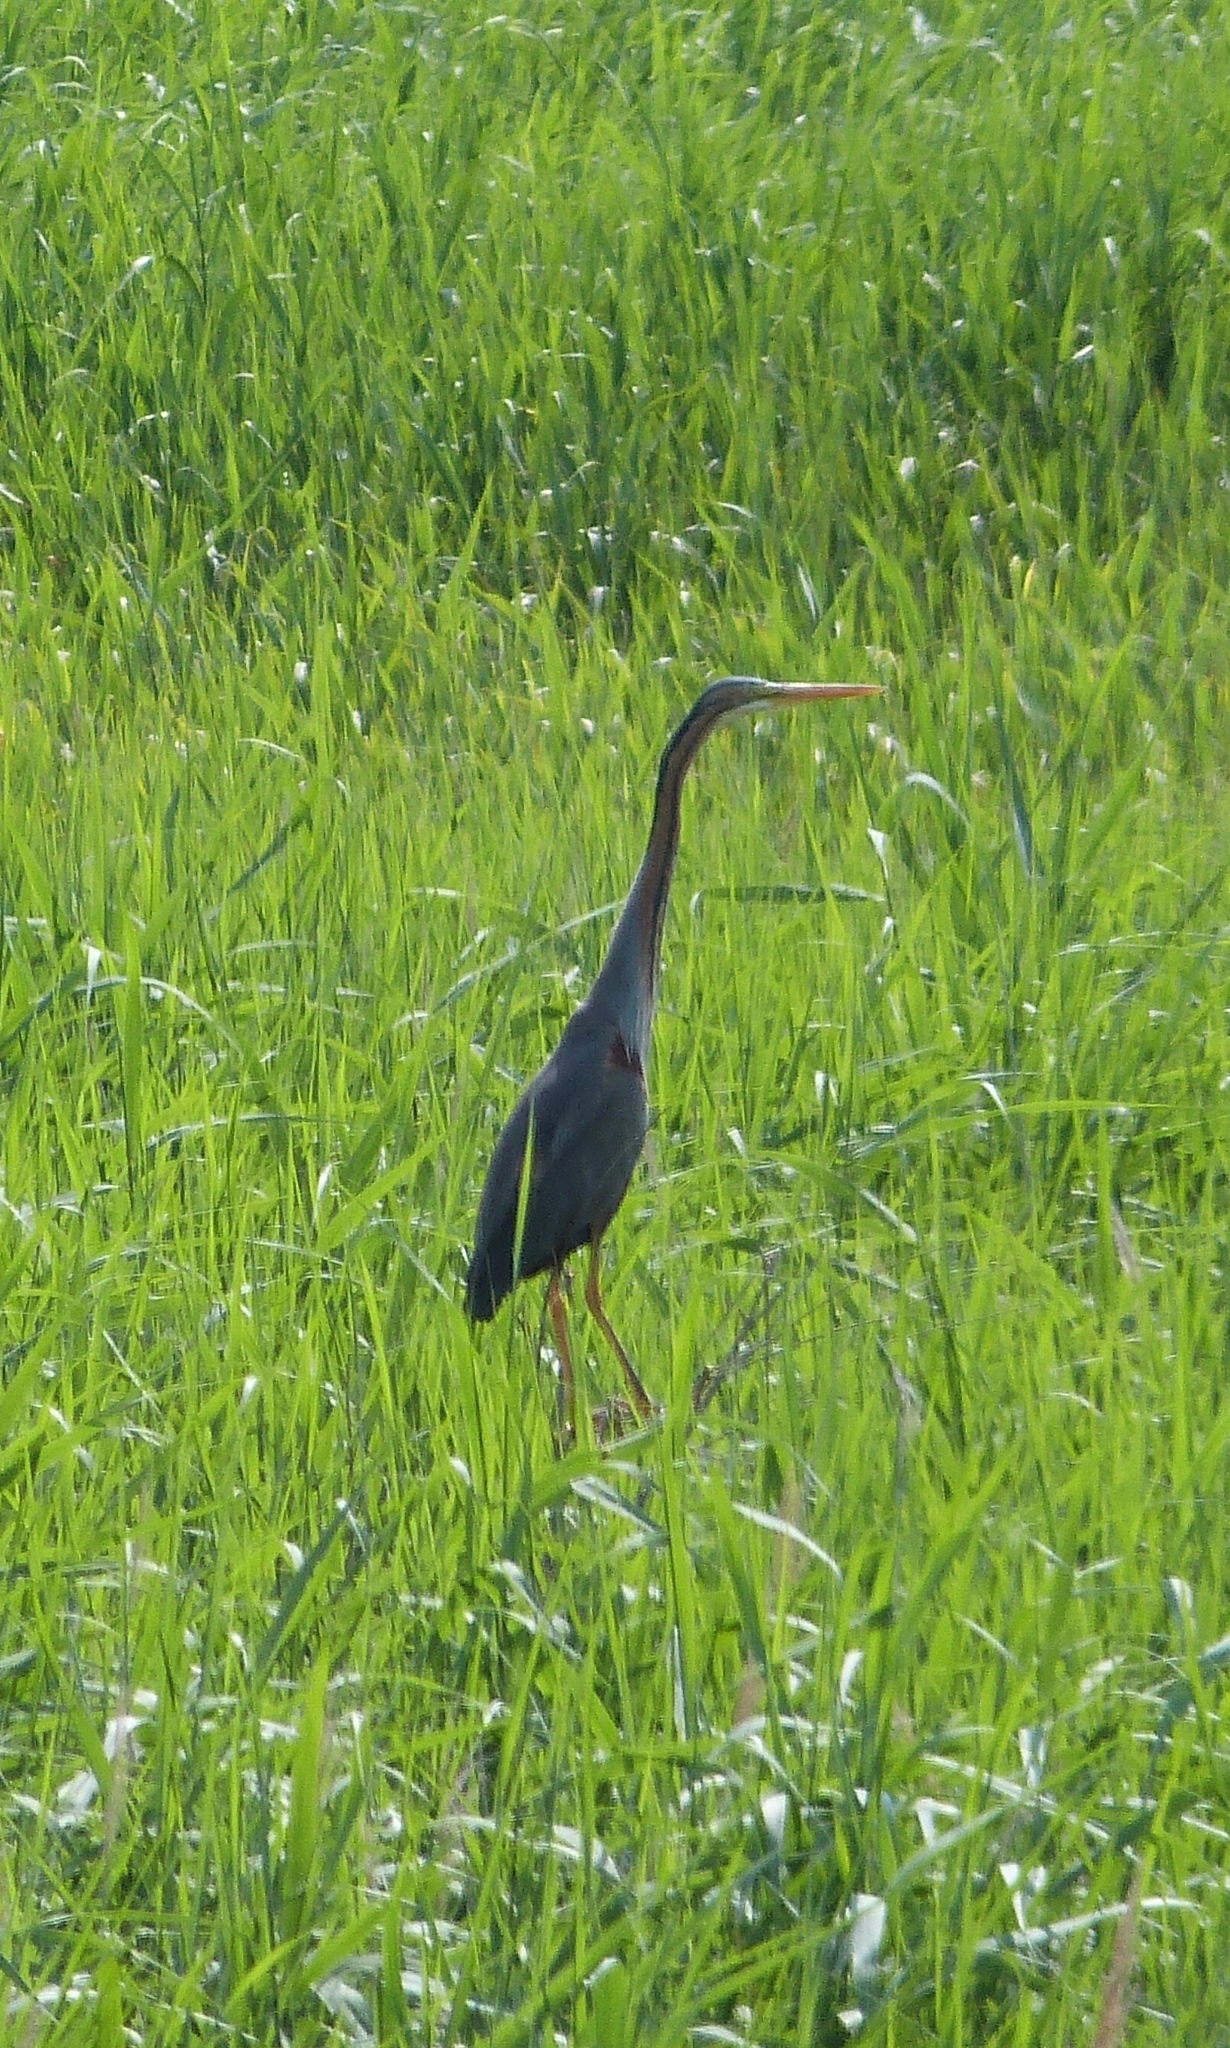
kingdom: Animalia
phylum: Chordata
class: Aves
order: Pelecaniformes
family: Ardeidae
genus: Ardea
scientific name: Ardea purpurea
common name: Purple heron
